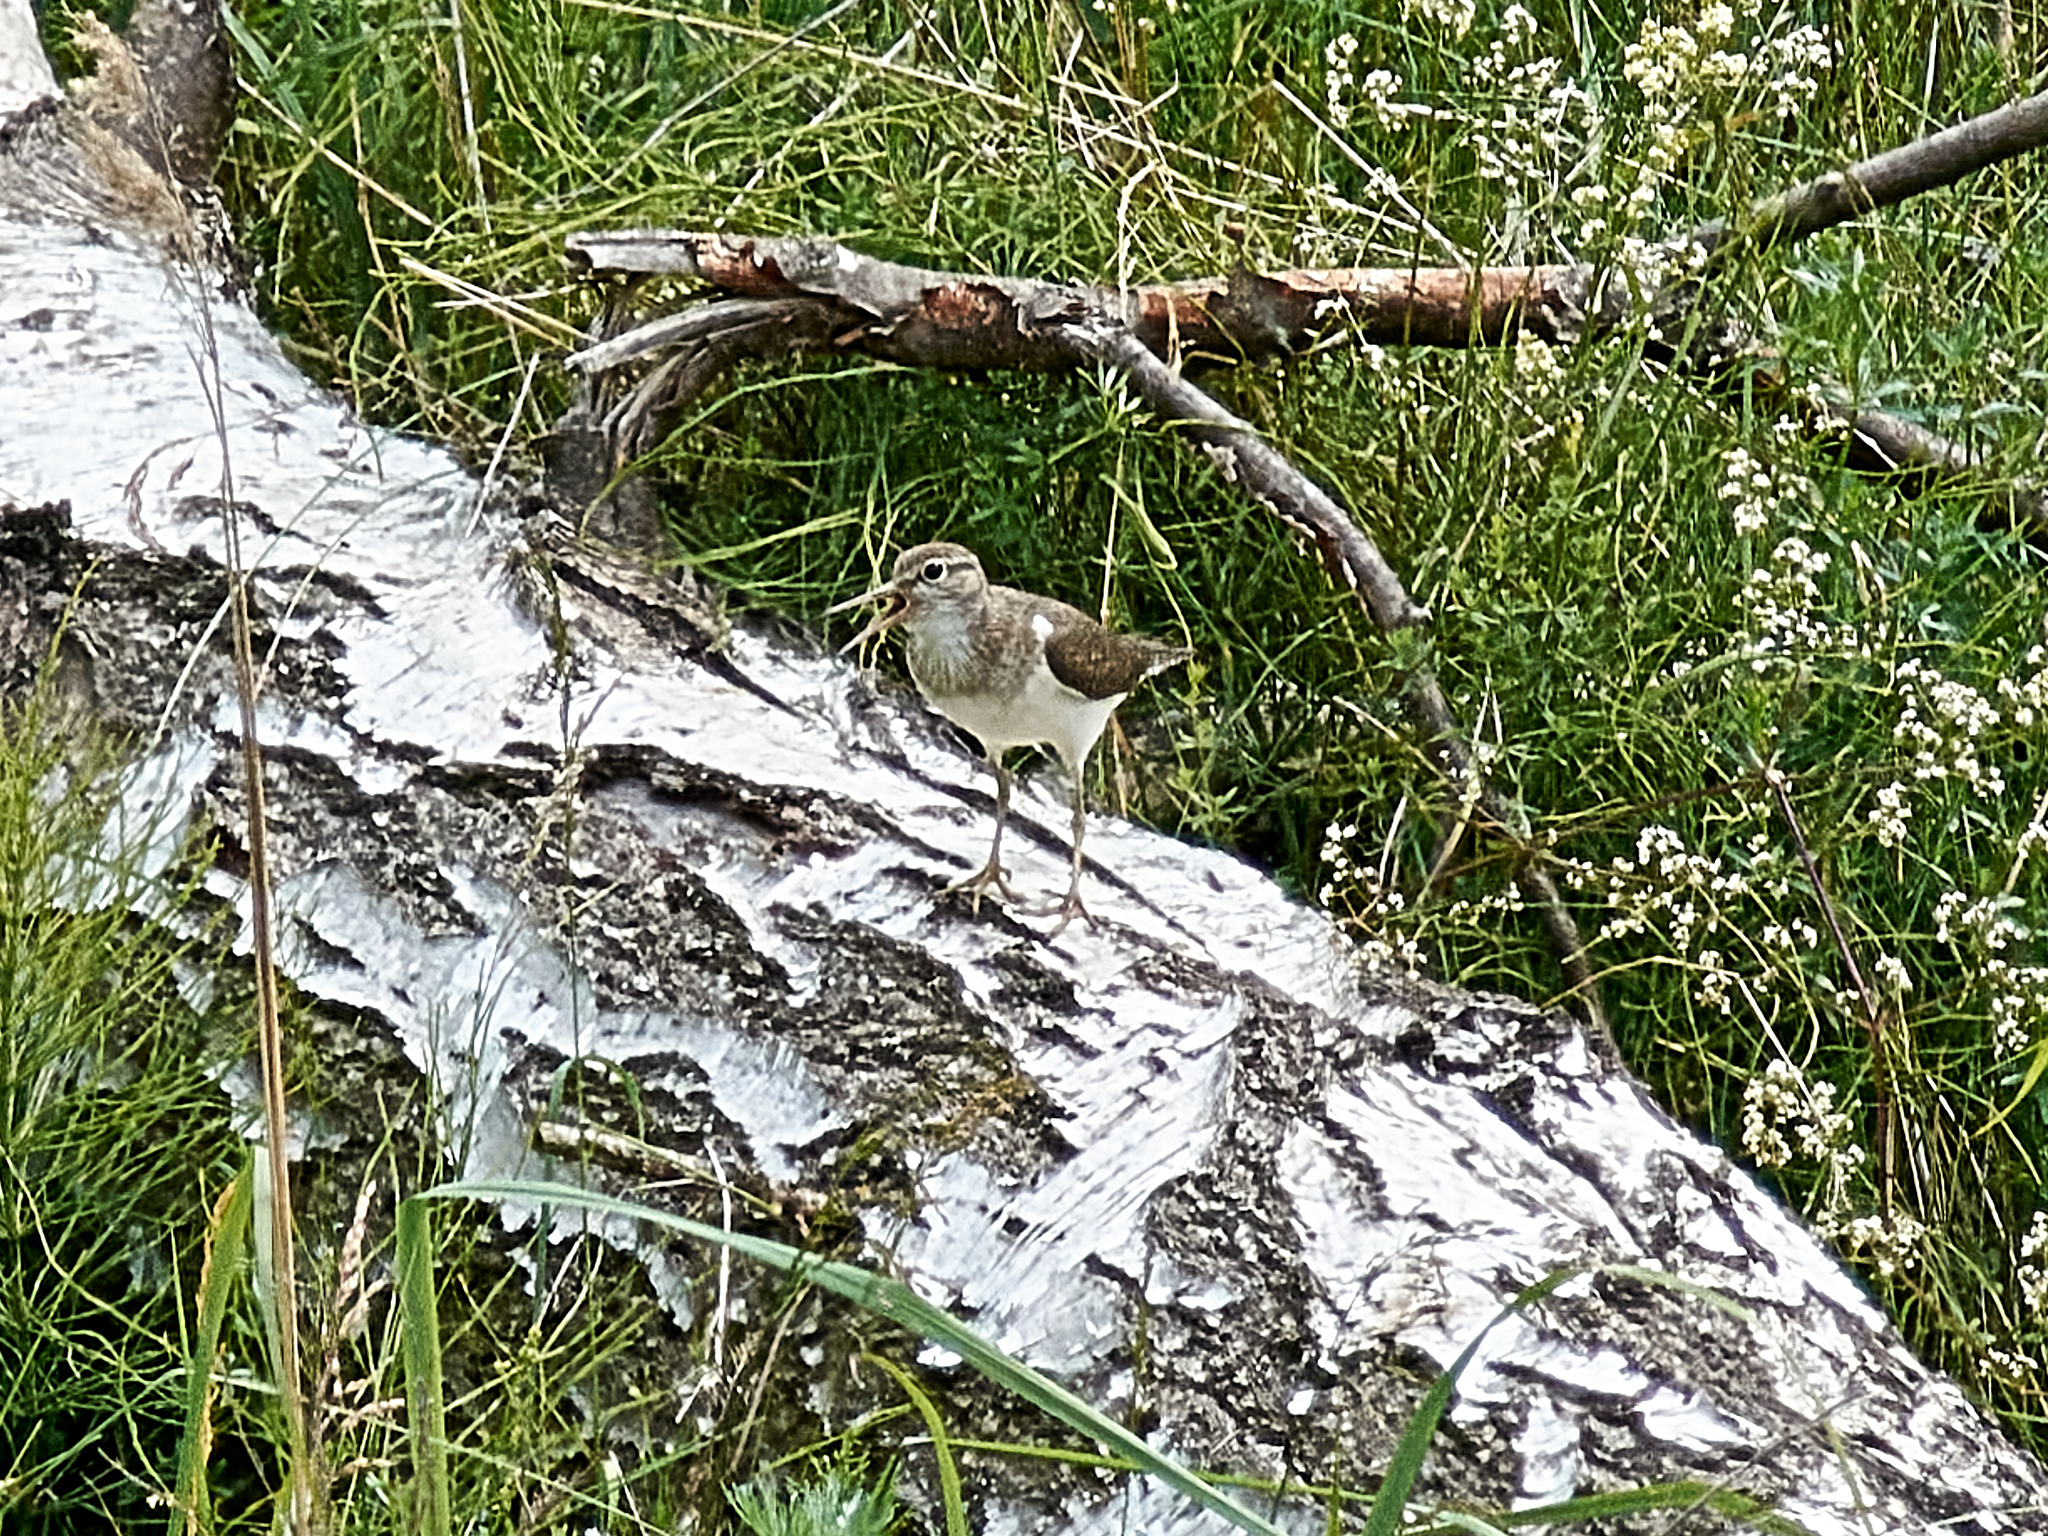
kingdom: Animalia
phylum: Chordata
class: Aves
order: Charadriiformes
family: Scolopacidae
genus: Actitis
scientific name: Actitis hypoleucos
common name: Common sandpiper
